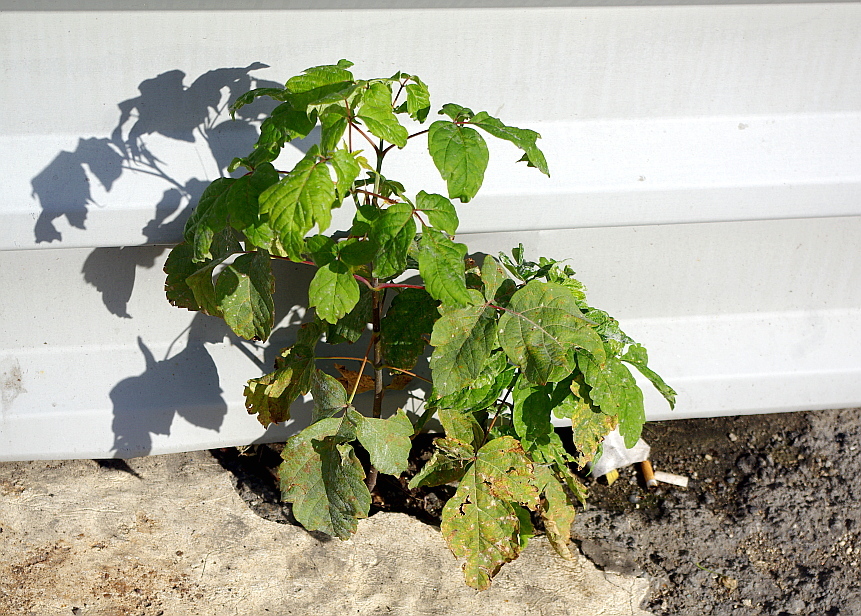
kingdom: Plantae
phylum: Tracheophyta
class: Magnoliopsida
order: Sapindales
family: Sapindaceae
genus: Acer
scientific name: Acer negundo
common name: Ashleaf maple
